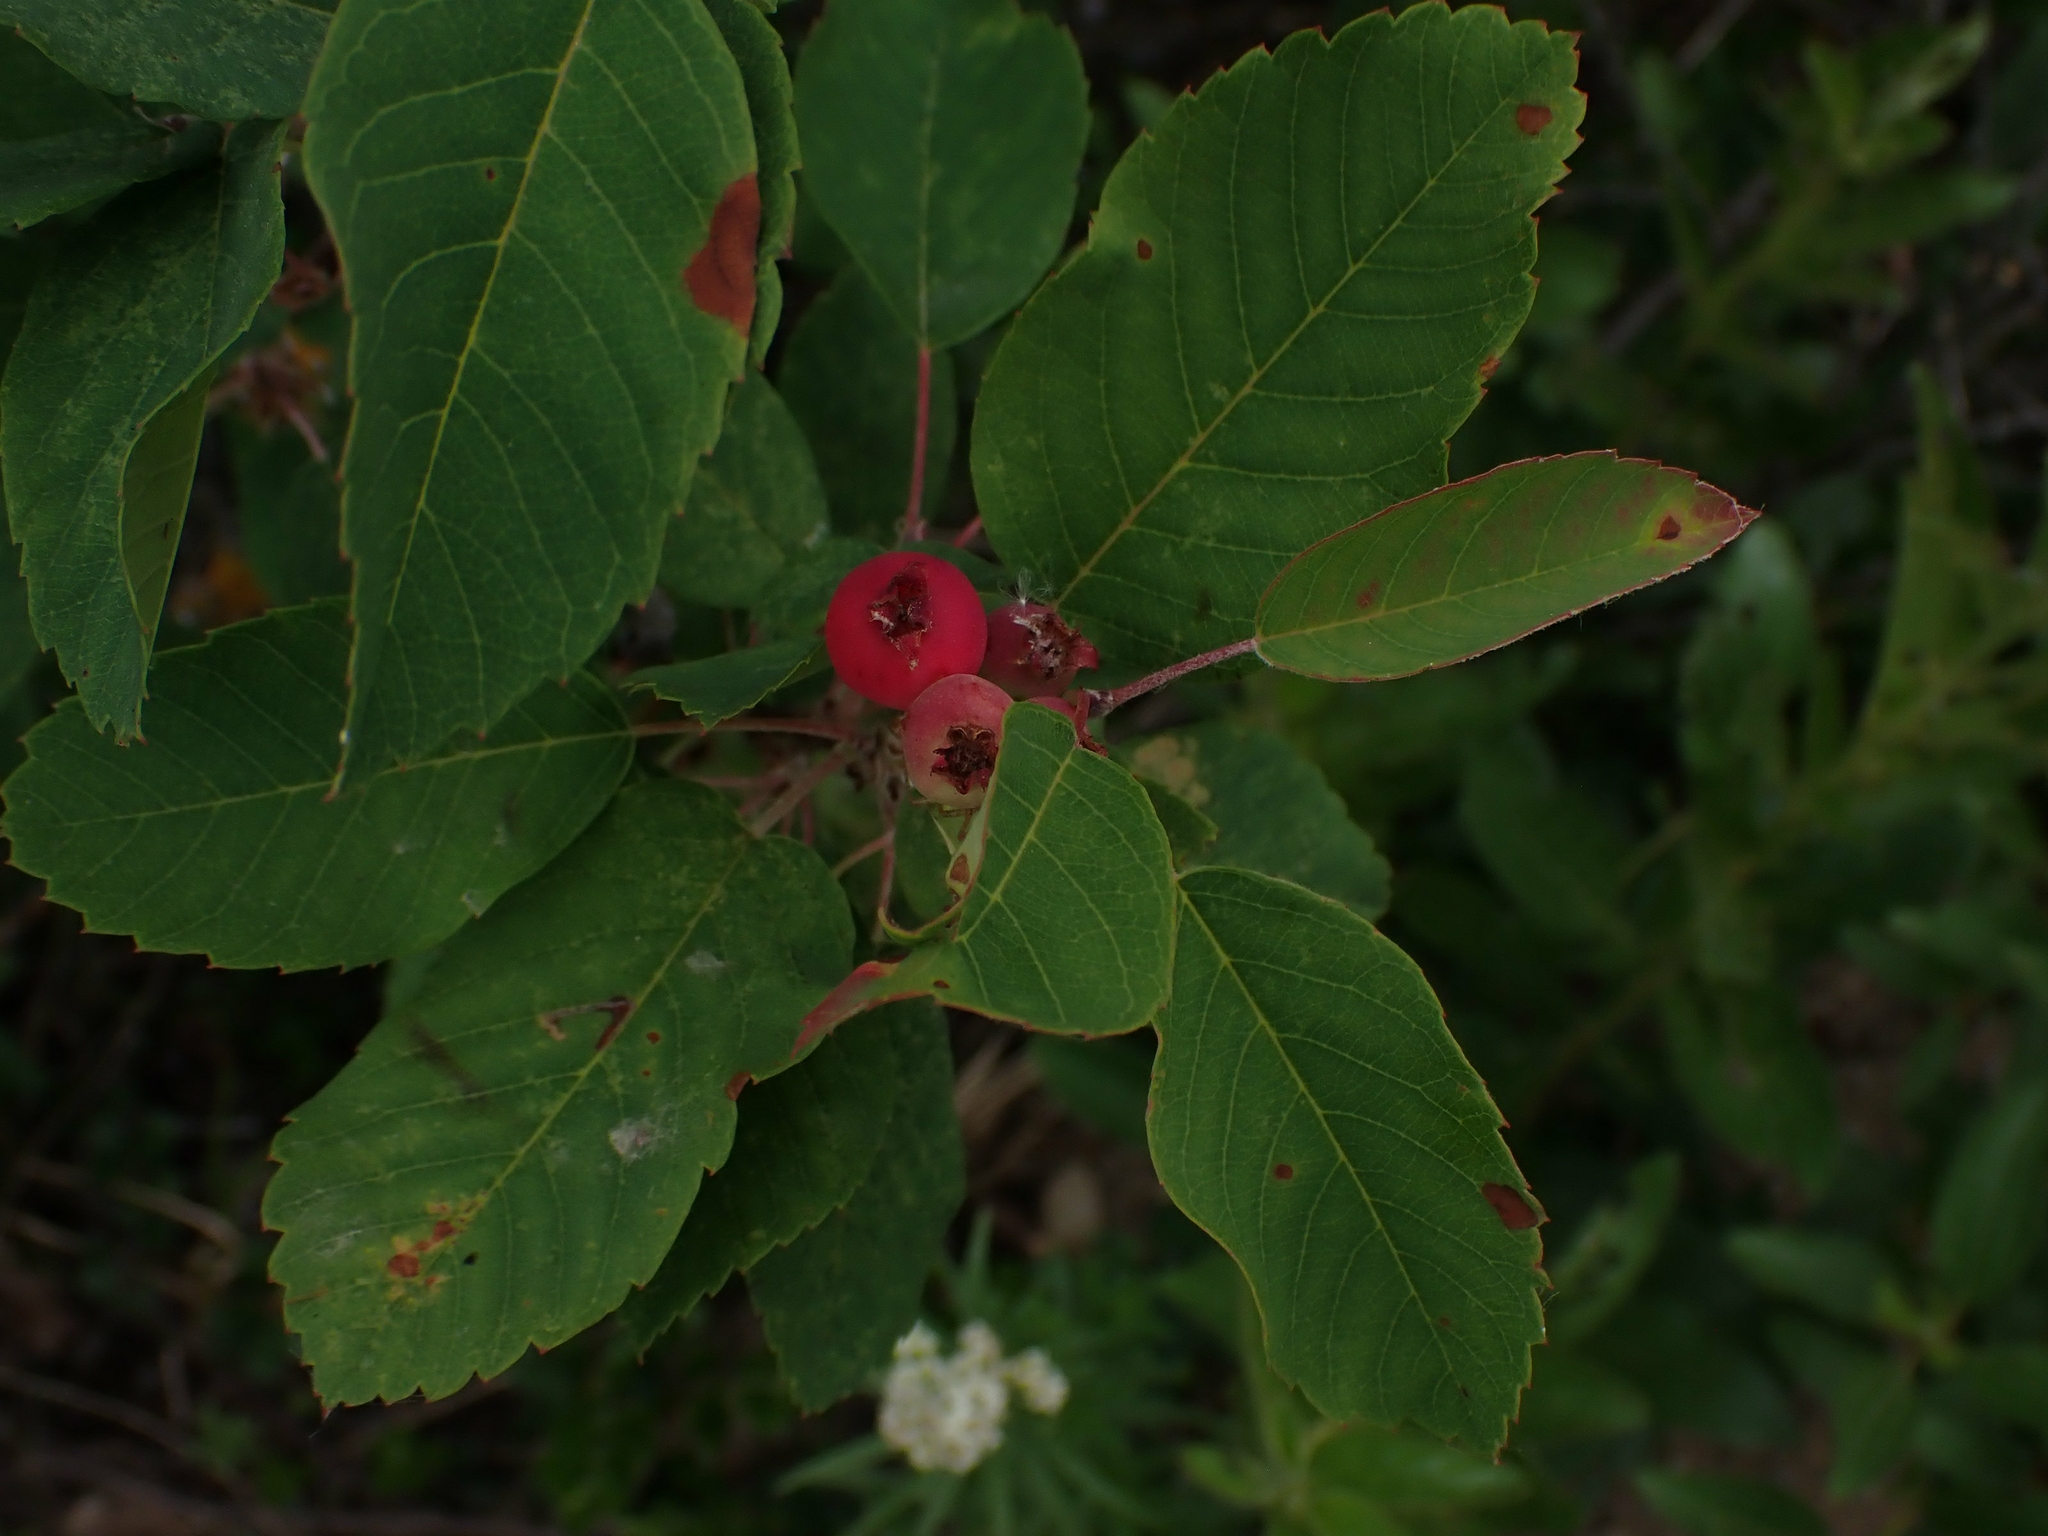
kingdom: Plantae
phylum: Tracheophyta
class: Magnoliopsida
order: Rosales
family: Rosaceae
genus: Amelanchier
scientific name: Amelanchier alnifolia
